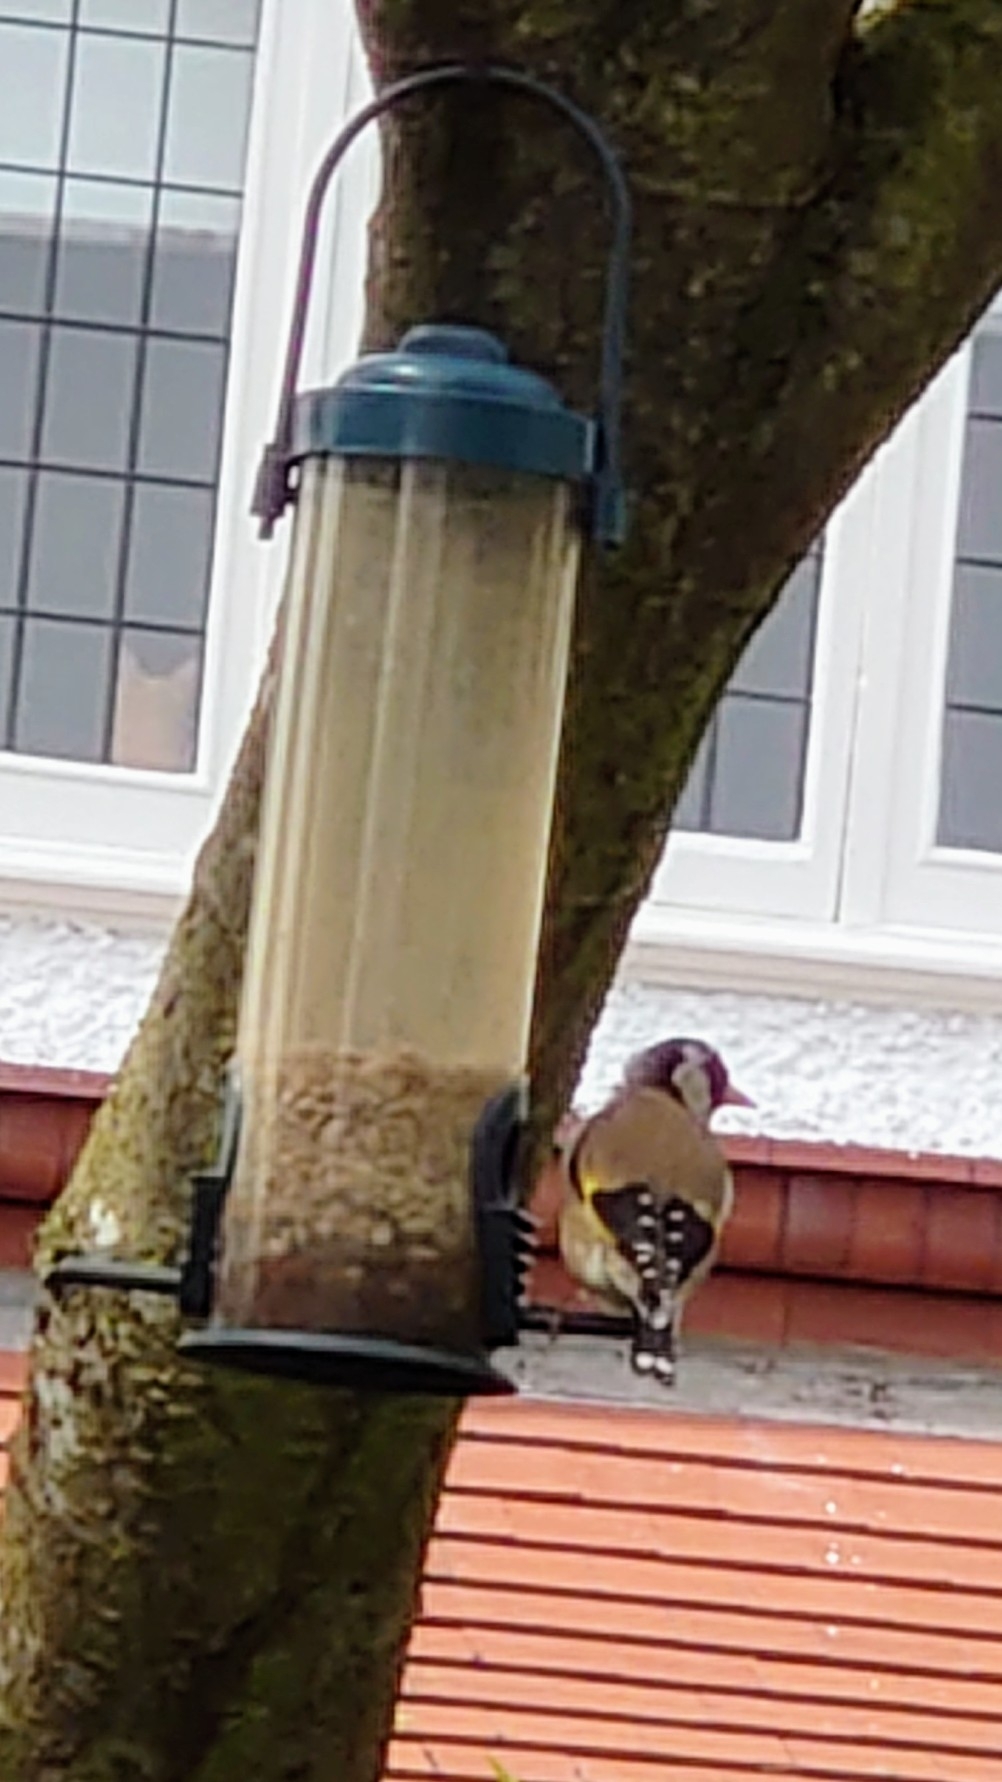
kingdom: Animalia
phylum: Chordata
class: Aves
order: Passeriformes
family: Fringillidae
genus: Carduelis
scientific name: Carduelis carduelis
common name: European goldfinch
